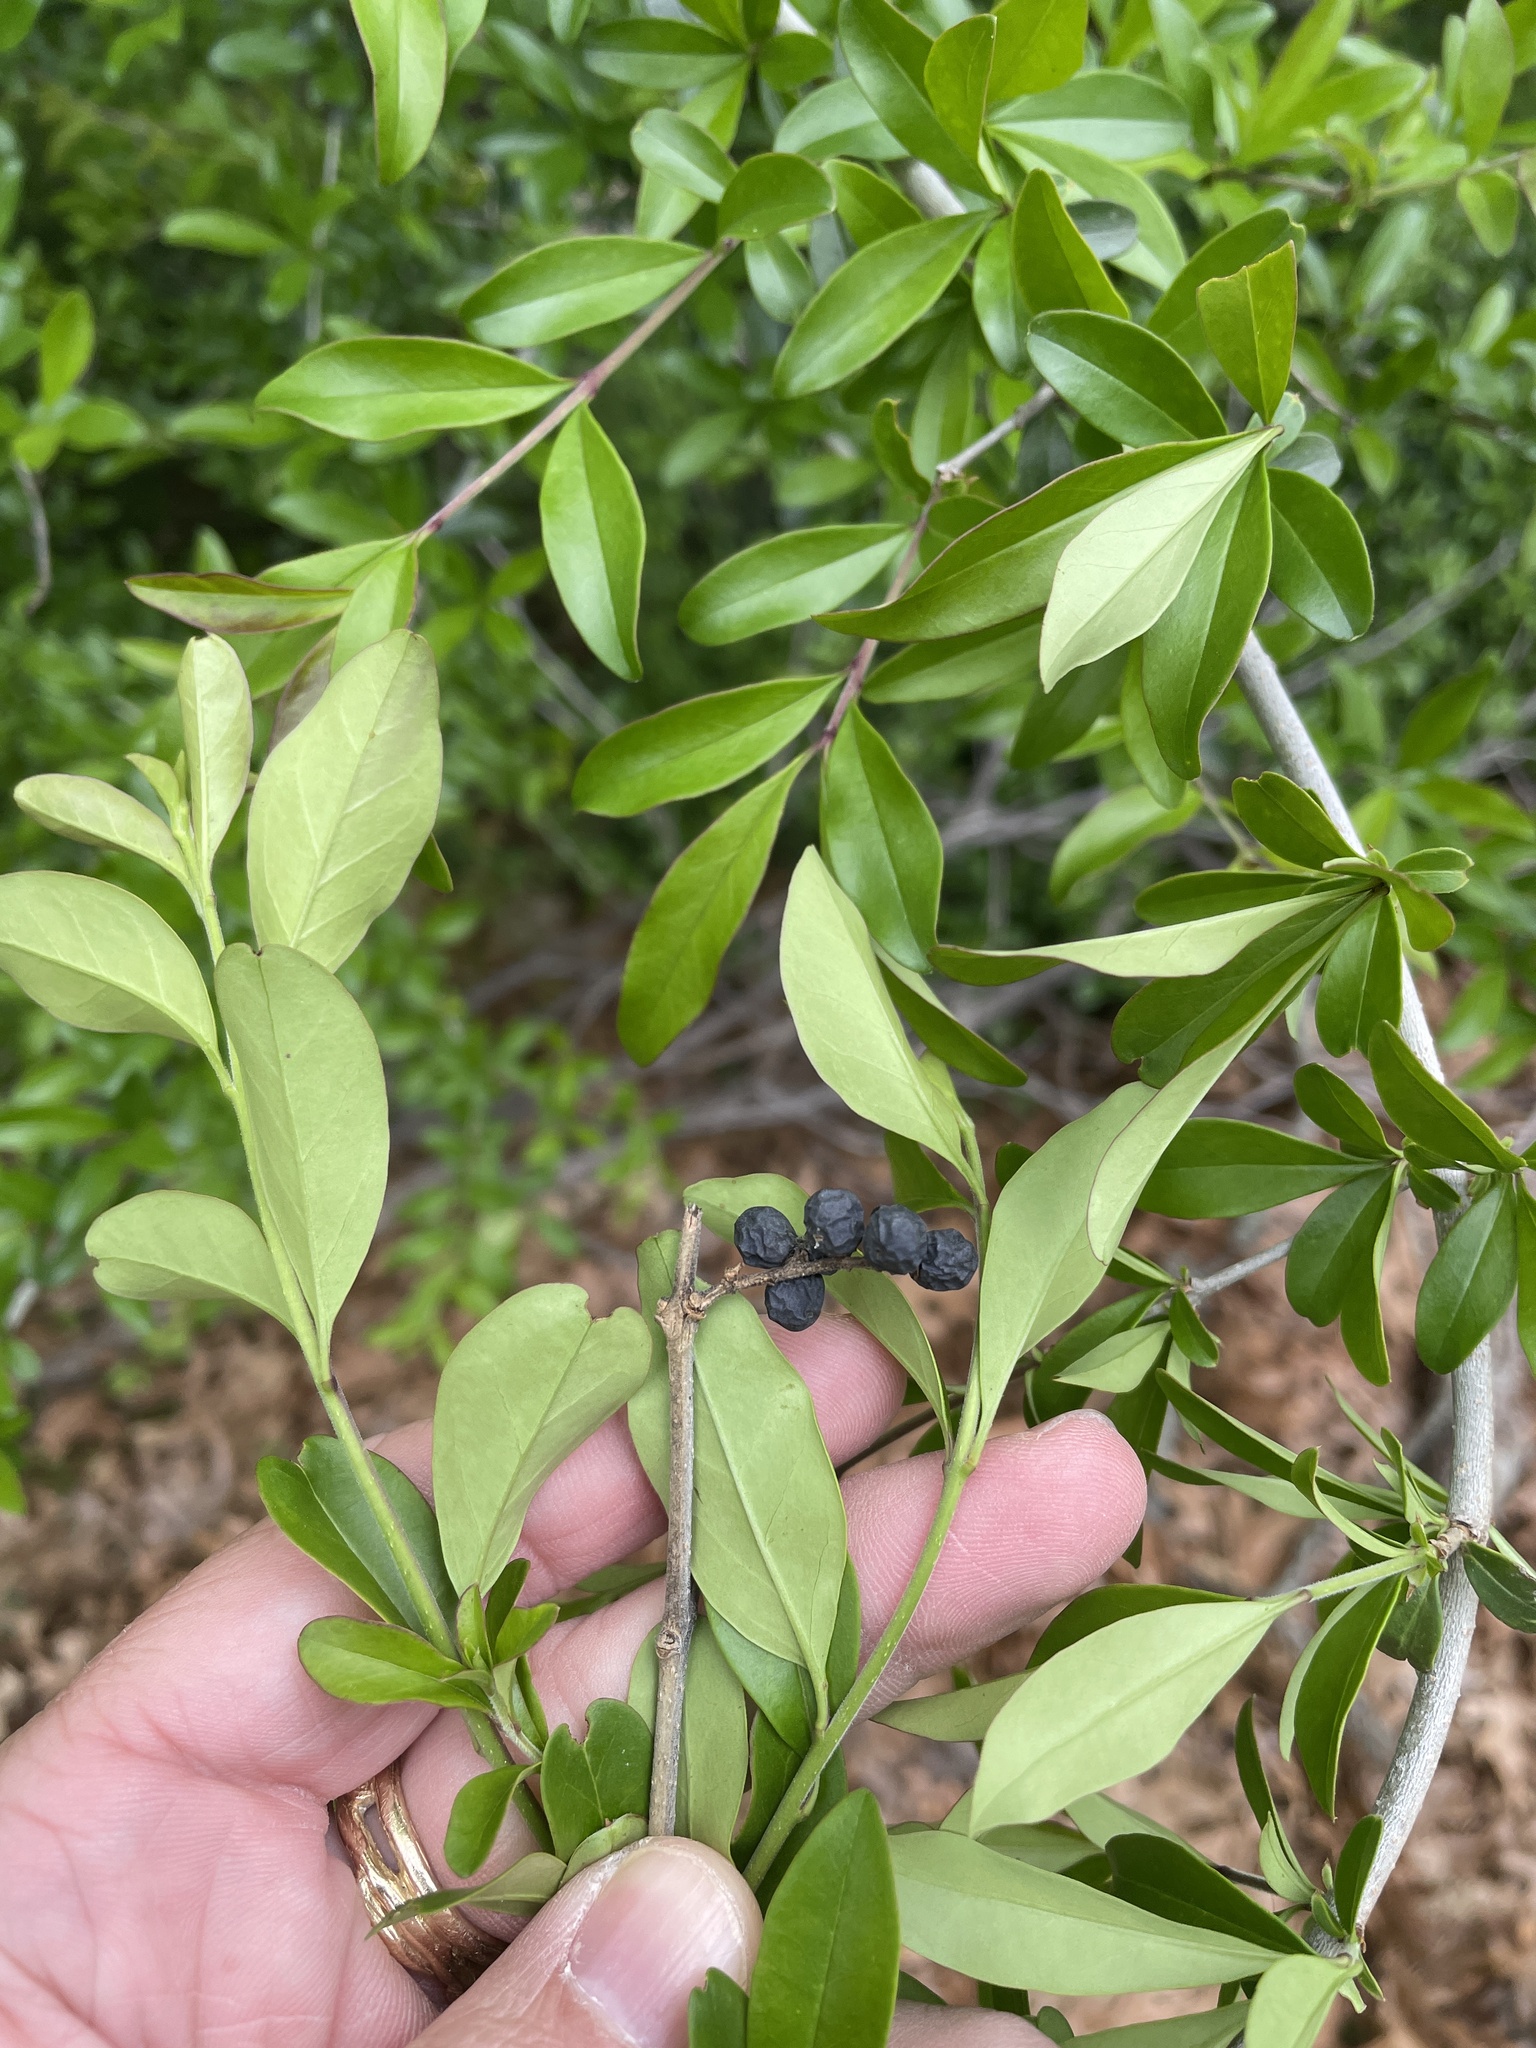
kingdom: Plantae
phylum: Tracheophyta
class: Magnoliopsida
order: Lamiales
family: Oleaceae
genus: Ligustrum
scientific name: Ligustrum quihoui
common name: Waxyleaf privet
